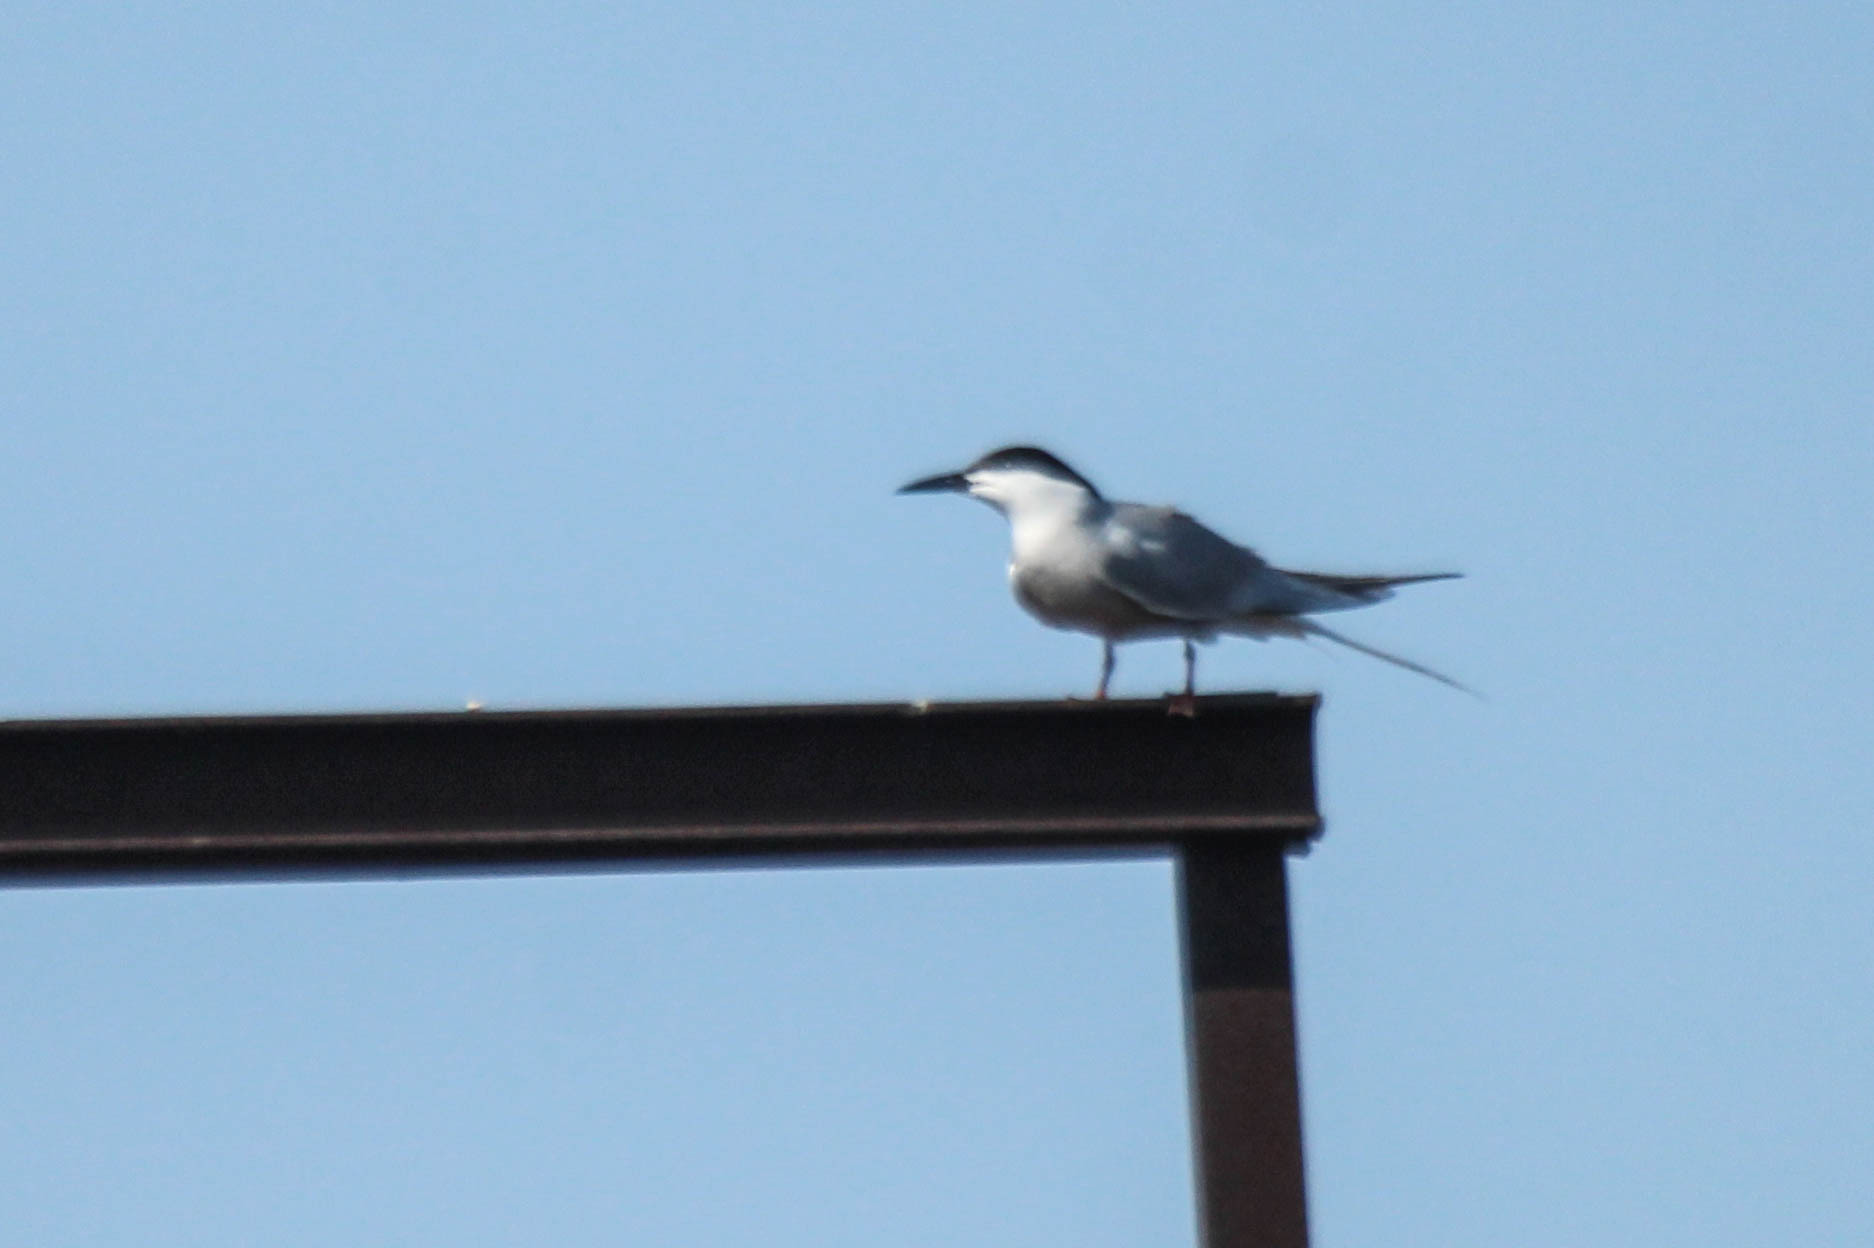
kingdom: Animalia
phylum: Chordata
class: Aves
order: Charadriiformes
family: Laridae
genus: Sterna
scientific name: Sterna hirundo
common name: Common tern
